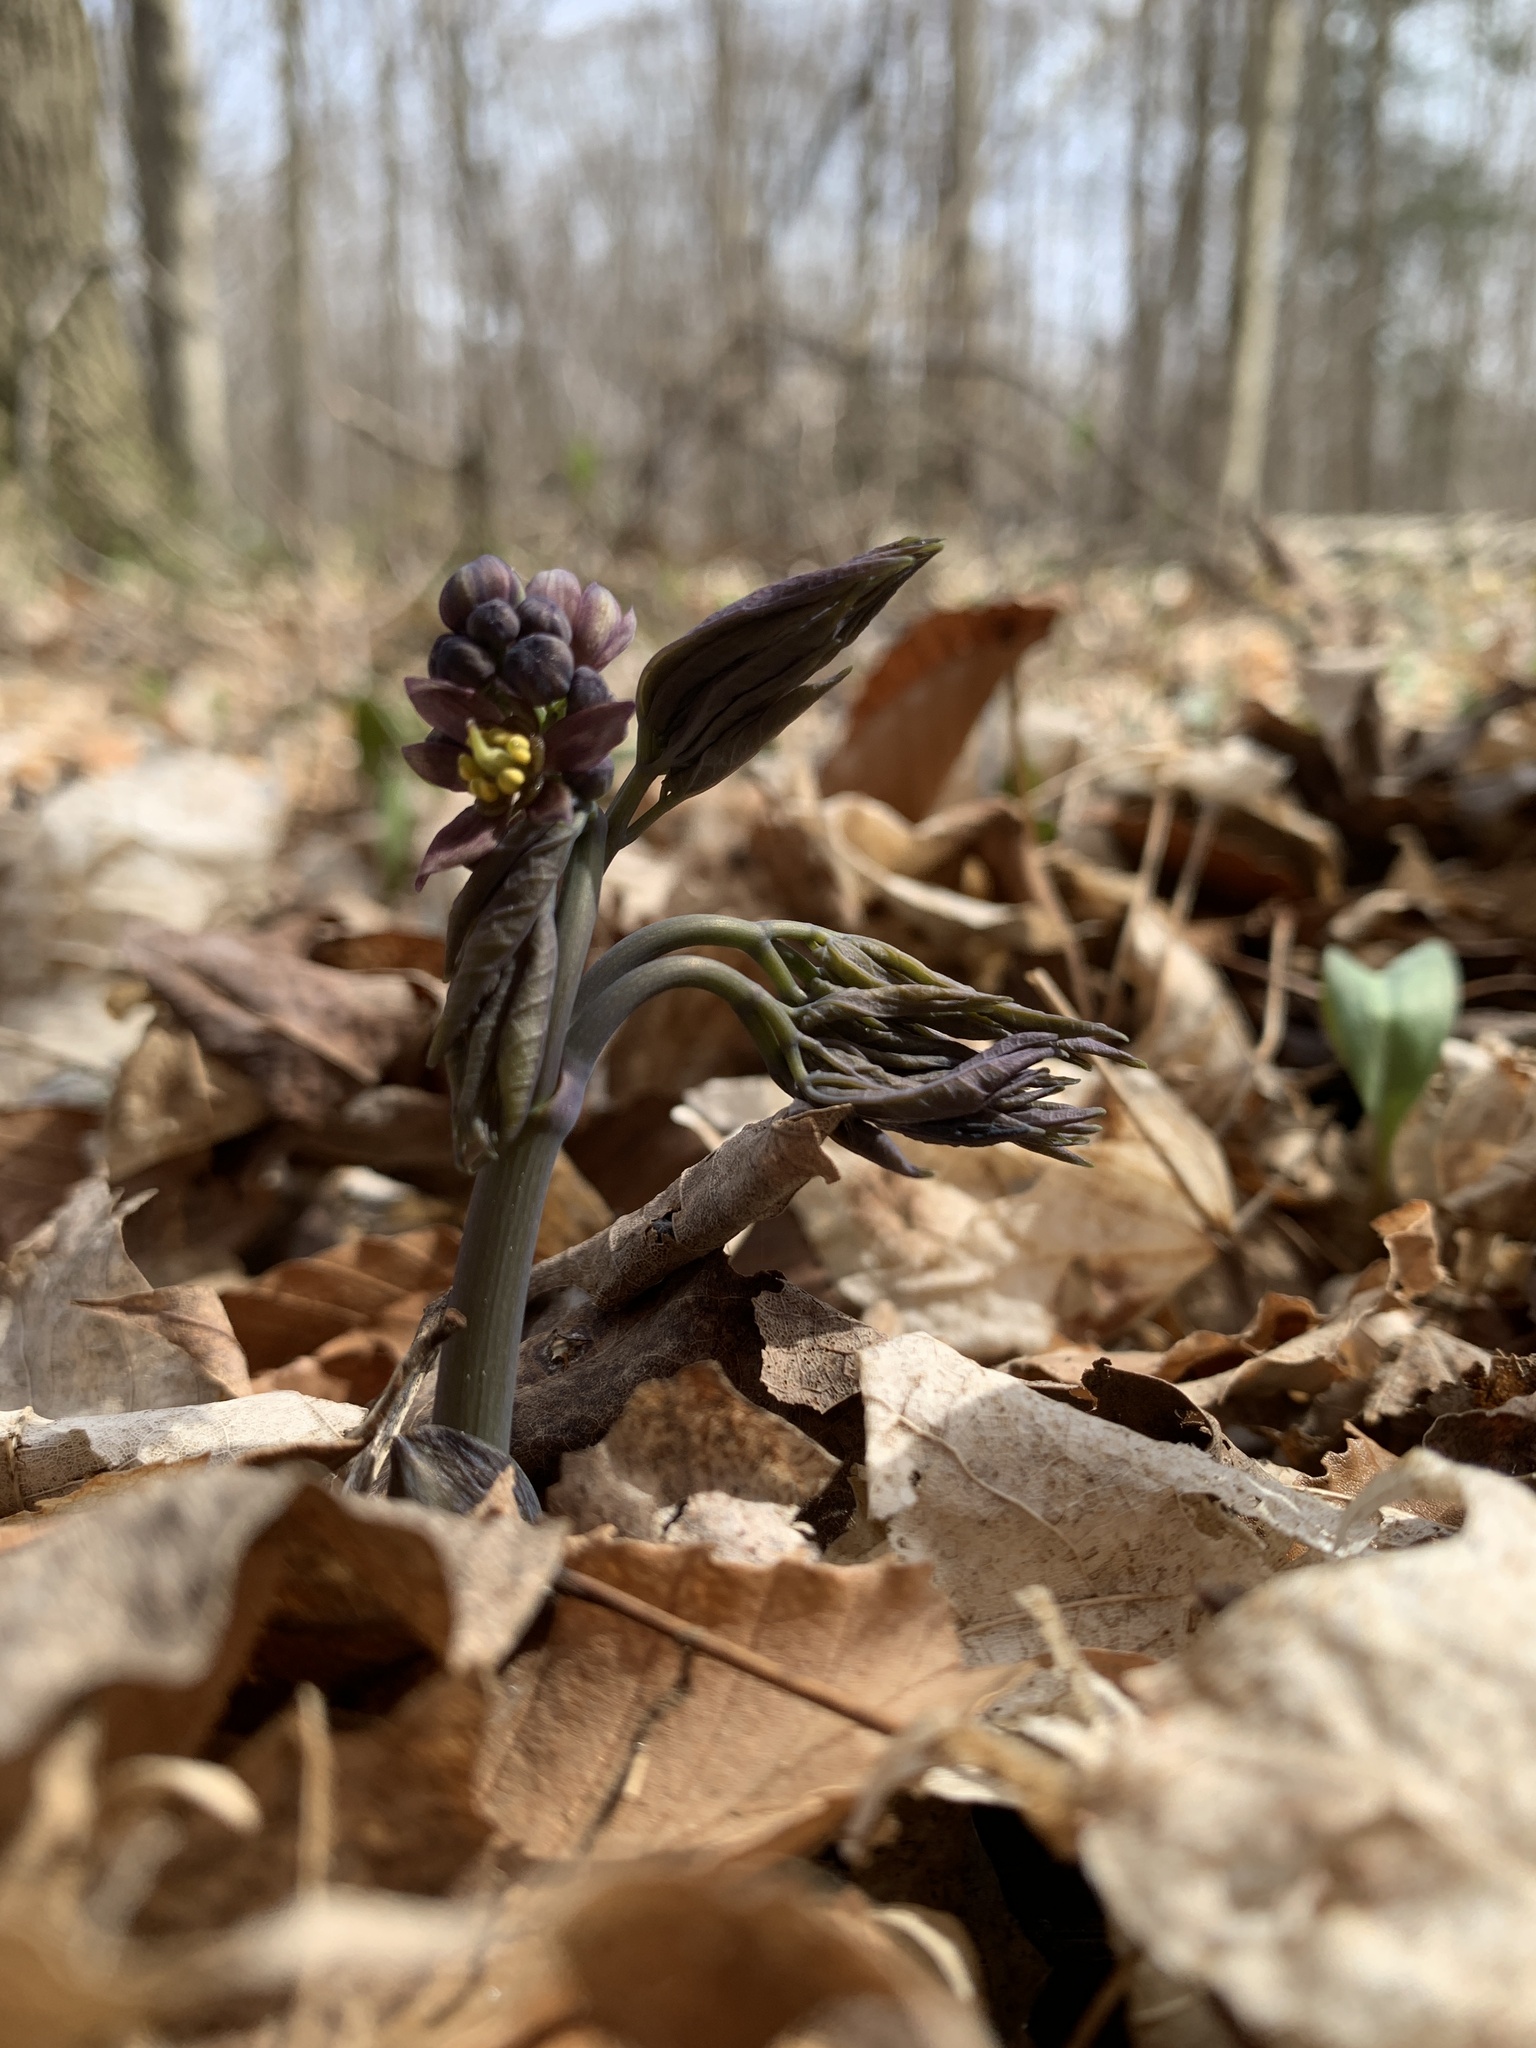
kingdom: Plantae
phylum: Tracheophyta
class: Magnoliopsida
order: Ranunculales
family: Berberidaceae
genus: Caulophyllum
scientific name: Caulophyllum giganteum
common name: Blue cohosh
